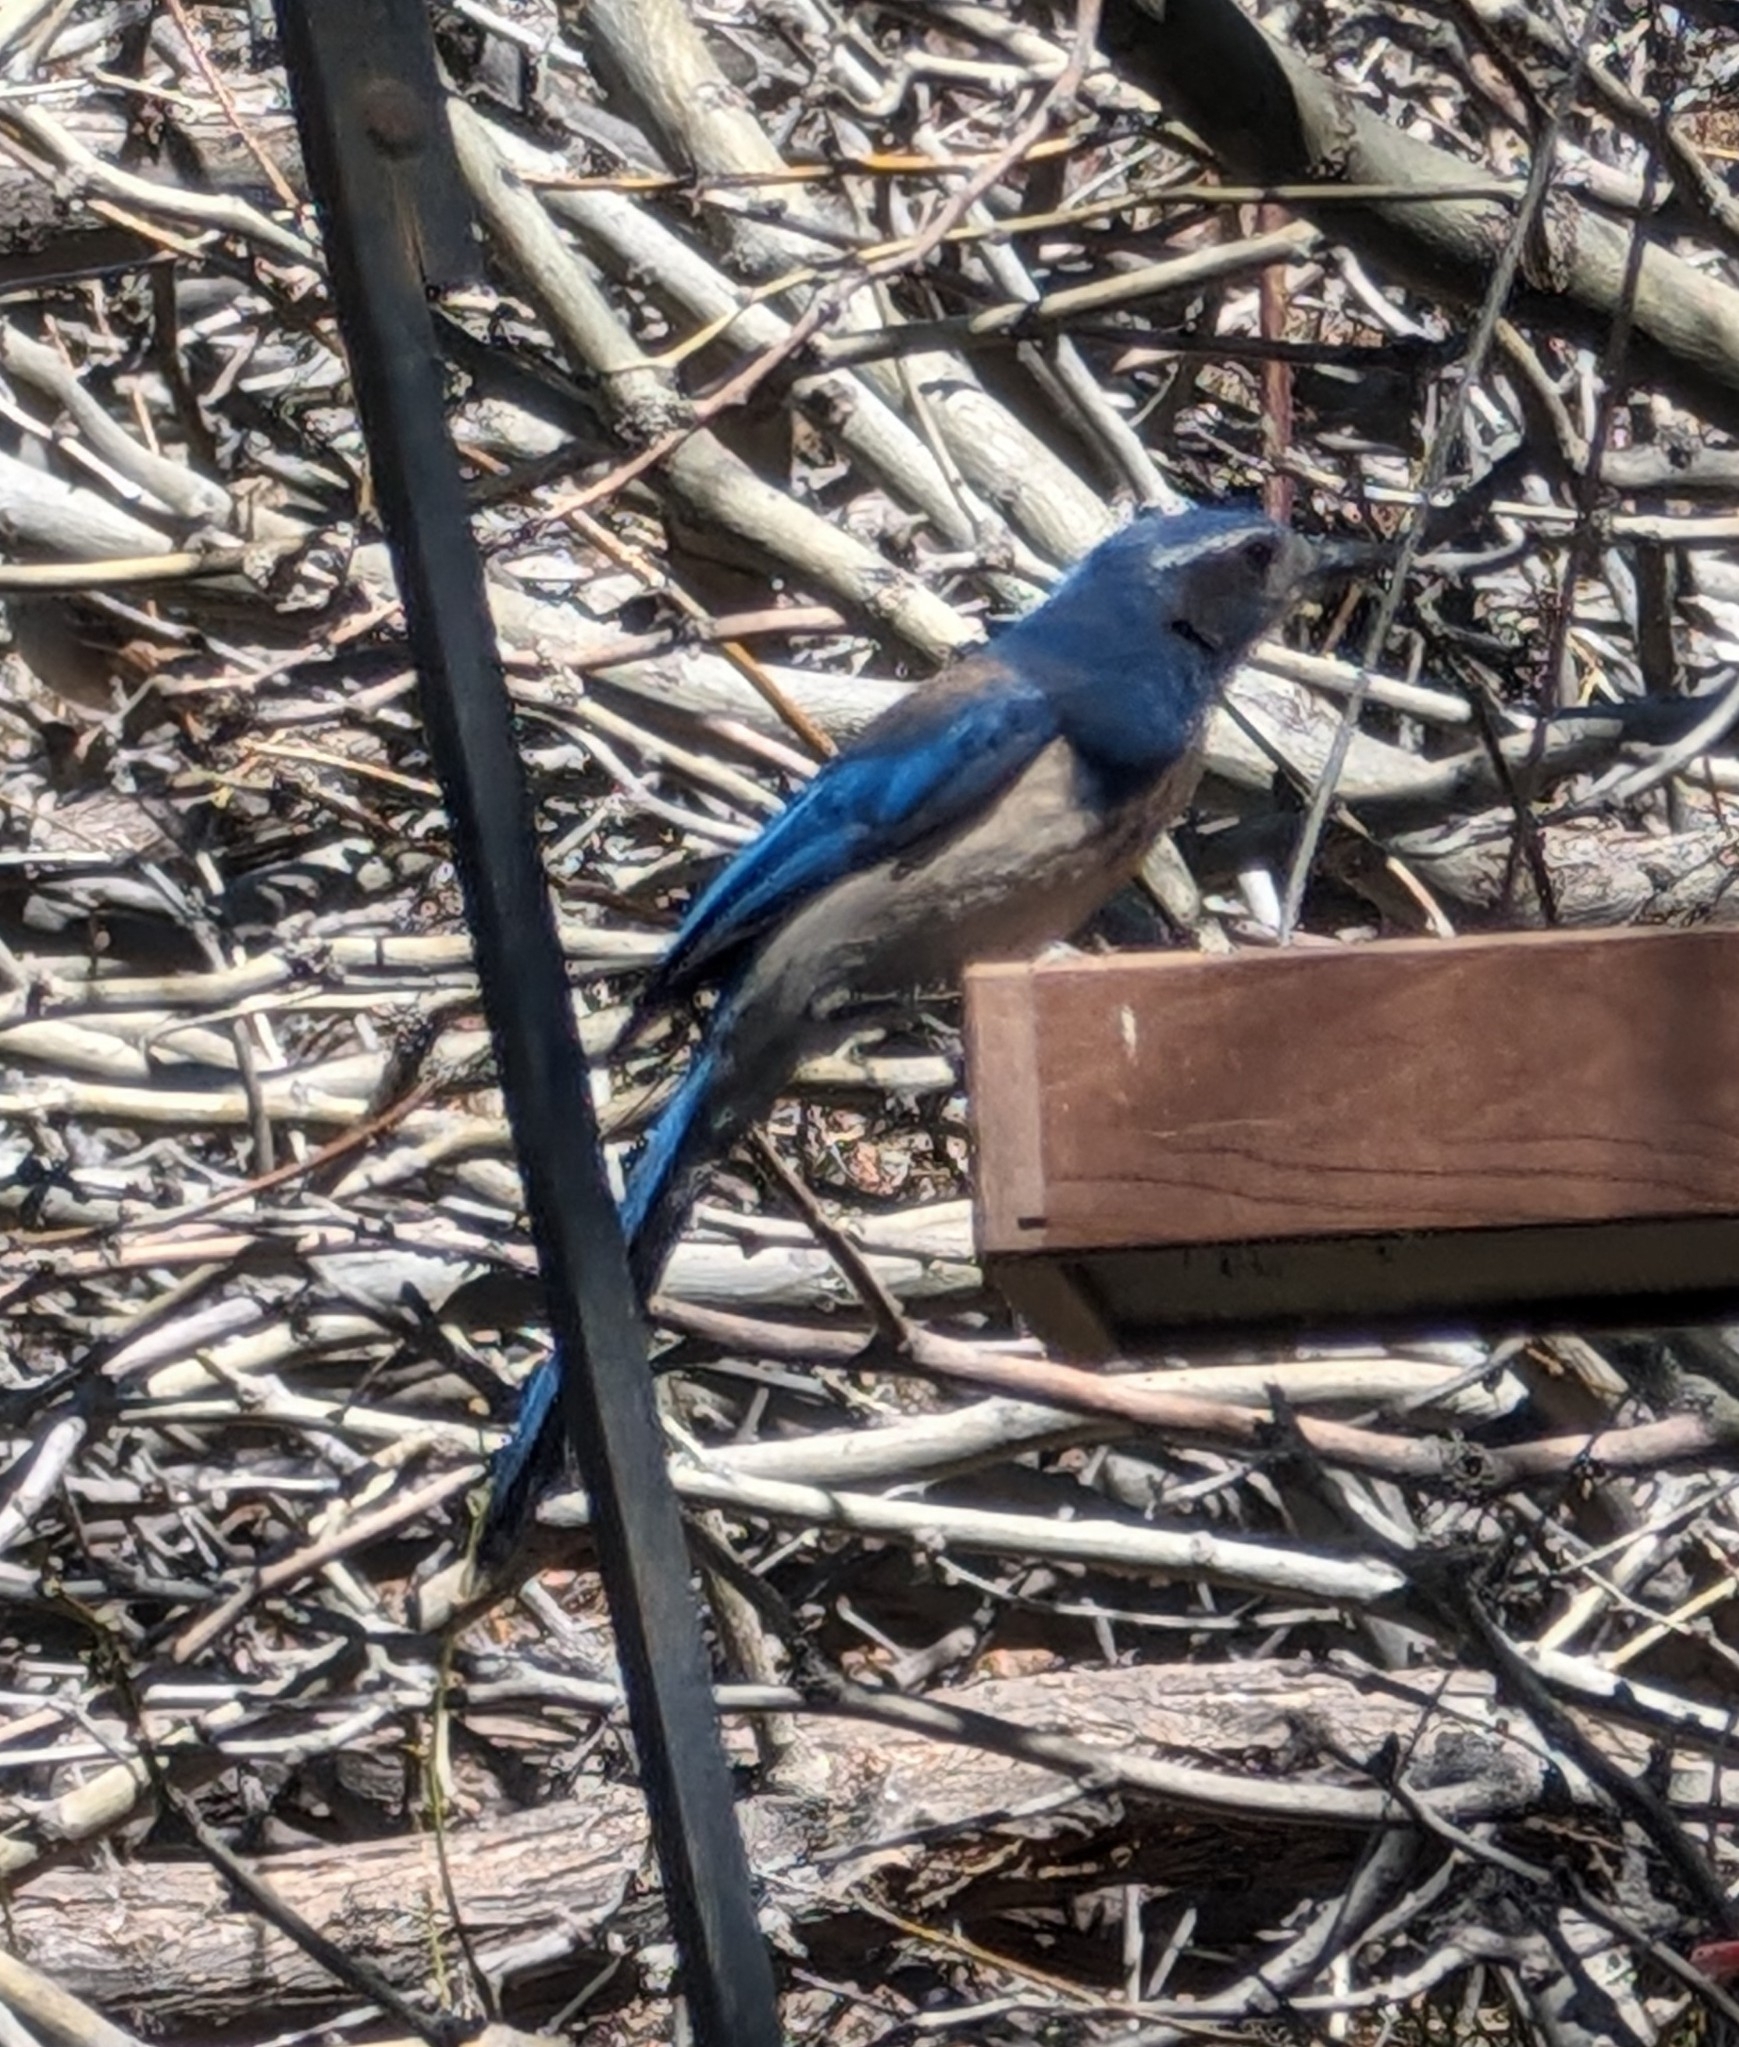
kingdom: Animalia
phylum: Chordata
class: Aves
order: Passeriformes
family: Corvidae
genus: Aphelocoma
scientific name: Aphelocoma californica
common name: California scrub-jay
